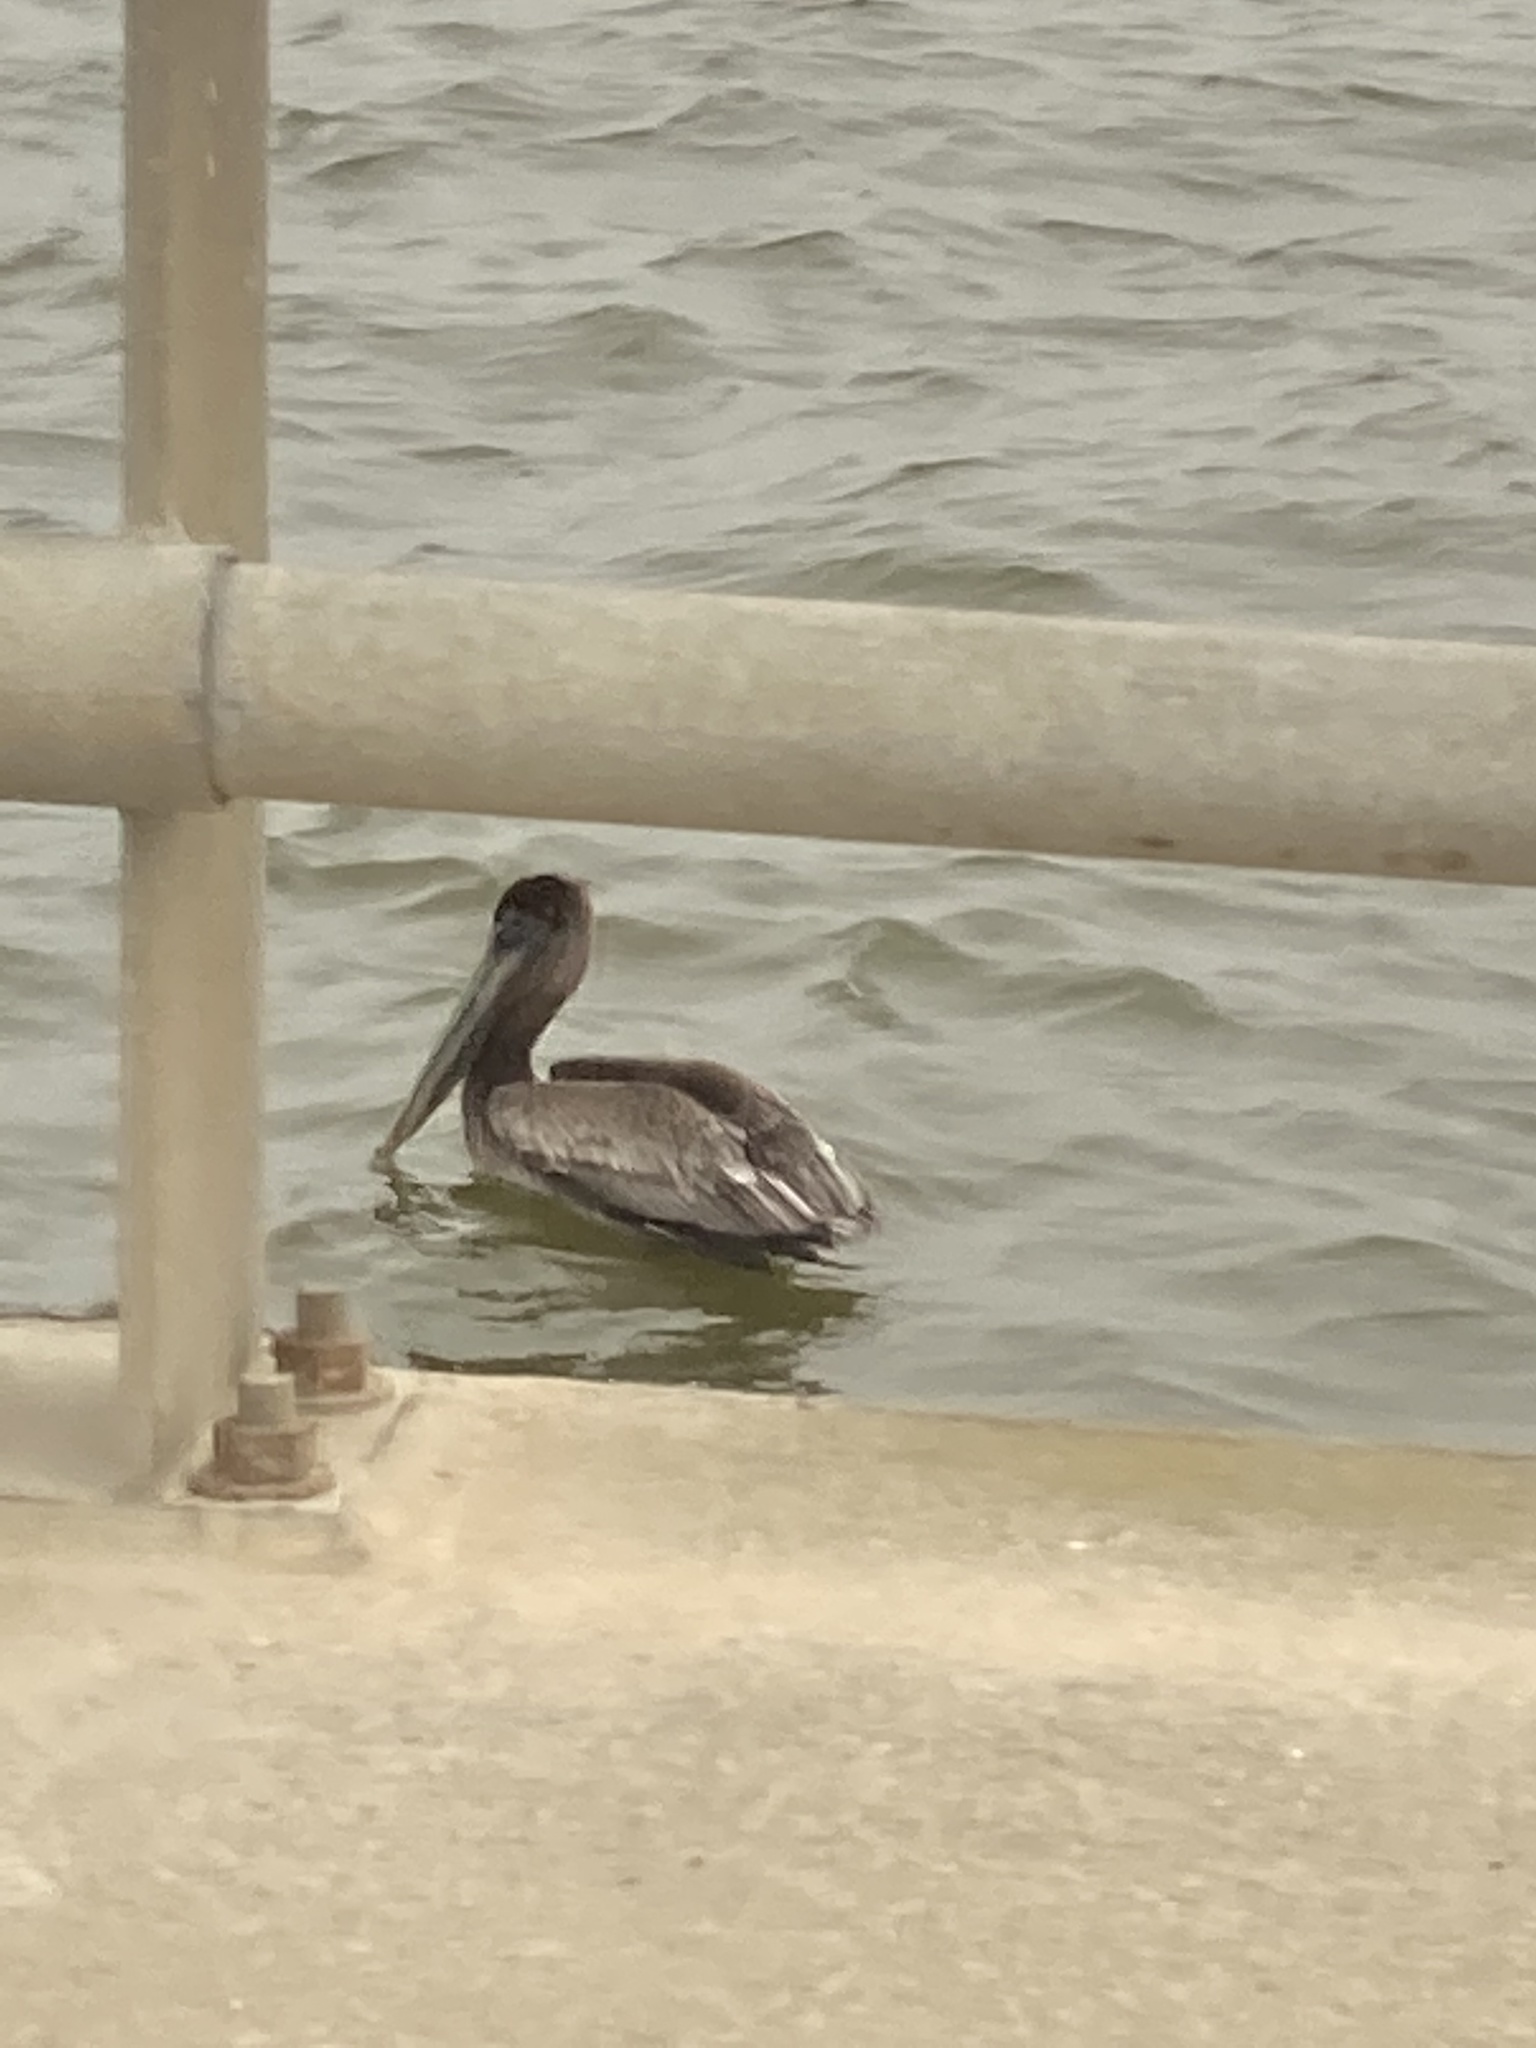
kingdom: Animalia
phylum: Chordata
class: Aves
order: Pelecaniformes
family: Pelecanidae
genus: Pelecanus
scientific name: Pelecanus occidentalis
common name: Brown pelican
